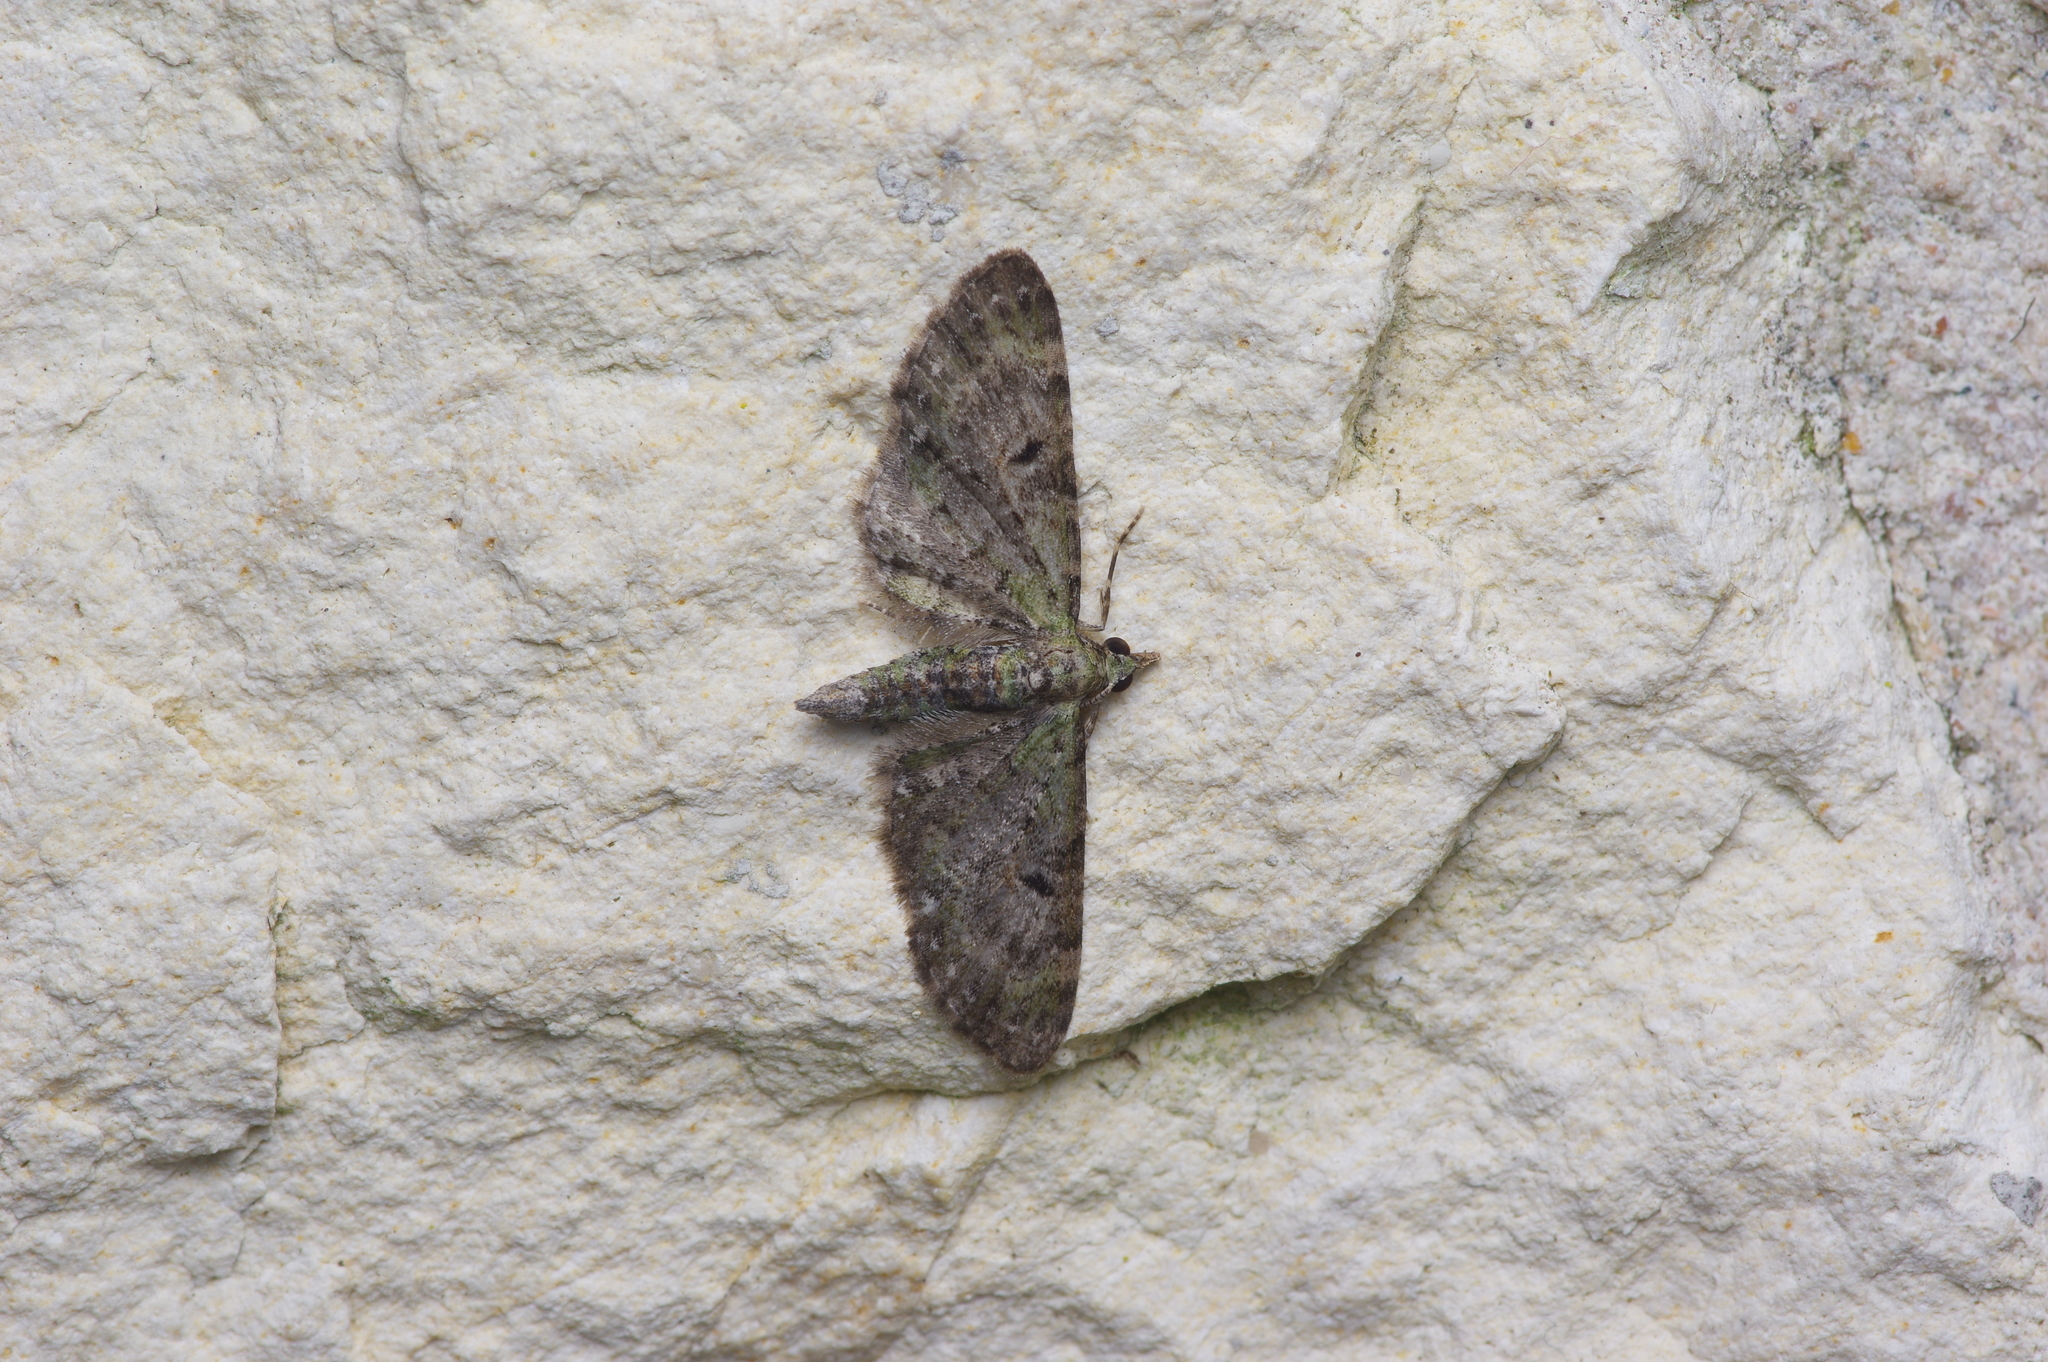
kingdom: Animalia
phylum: Arthropoda
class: Insecta
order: Lepidoptera
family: Geometridae
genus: Eupithecia
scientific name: Eupithecia miserulata
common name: Common eupithecia
